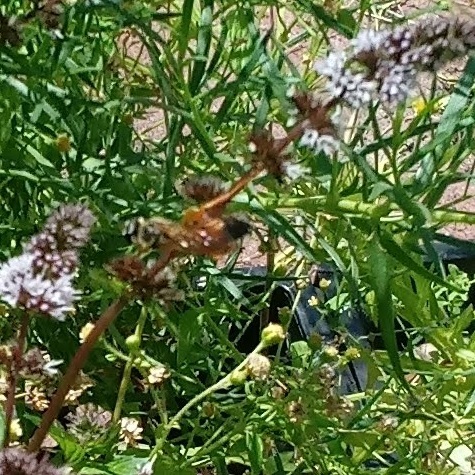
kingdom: Animalia
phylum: Arthropoda
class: Insecta
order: Hymenoptera
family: Sphecidae
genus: Sphex
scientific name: Sphex ichneumoneus
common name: Great golden digger wasp
